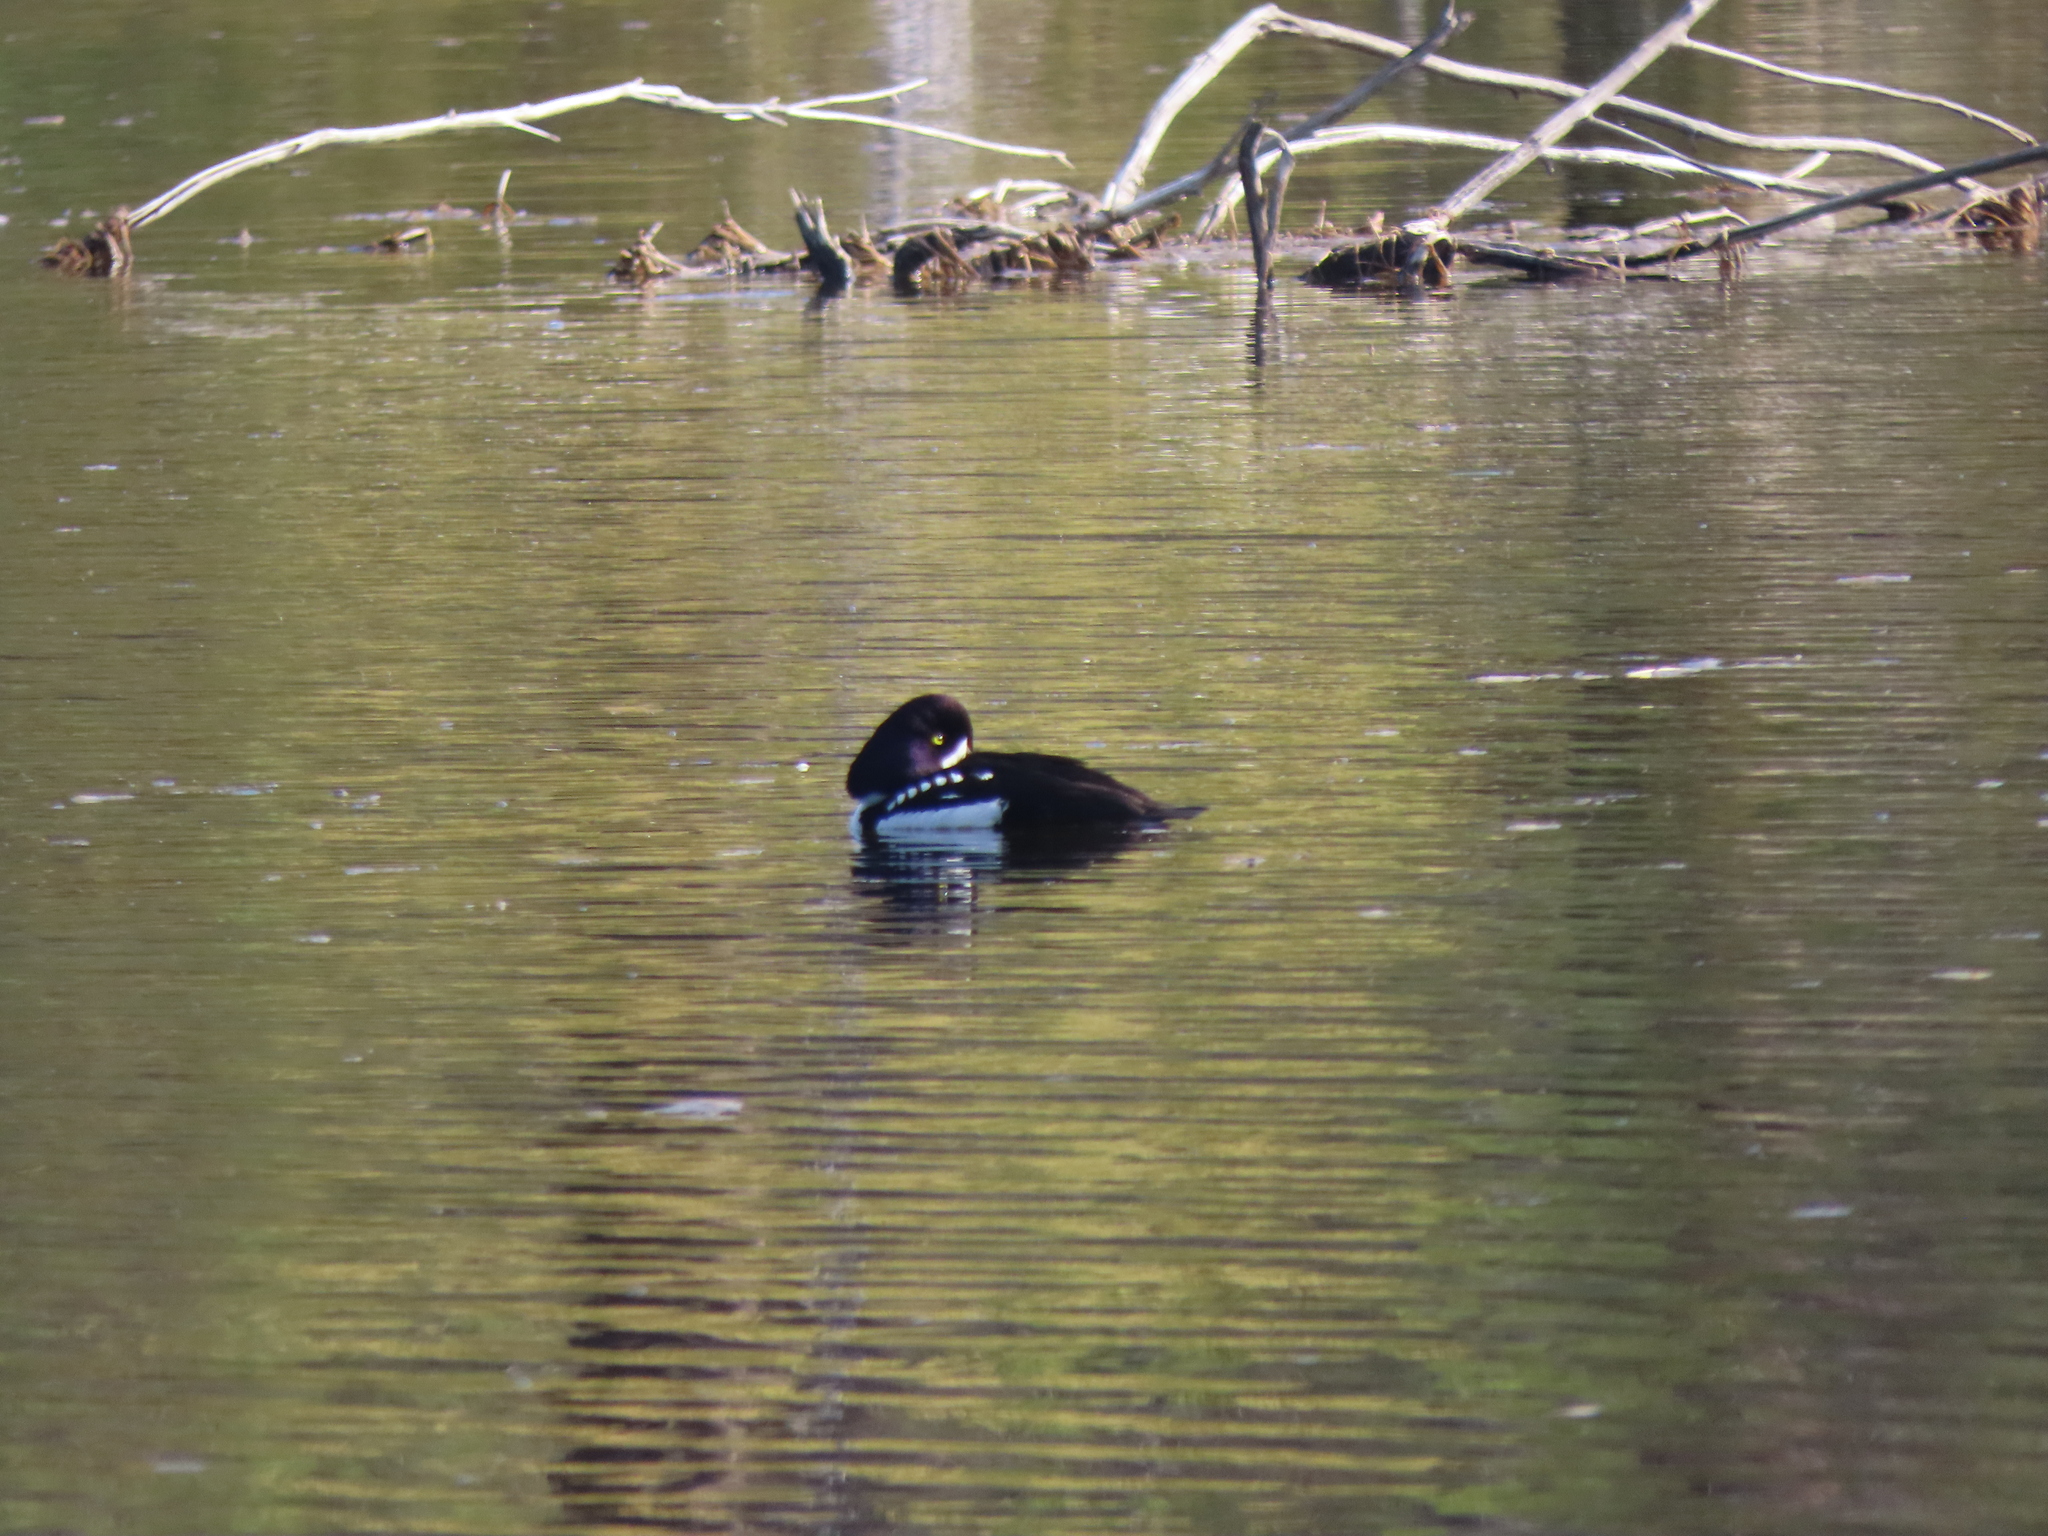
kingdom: Animalia
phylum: Chordata
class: Aves
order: Anseriformes
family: Anatidae
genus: Bucephala
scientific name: Bucephala islandica
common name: Barrow's goldeneye
